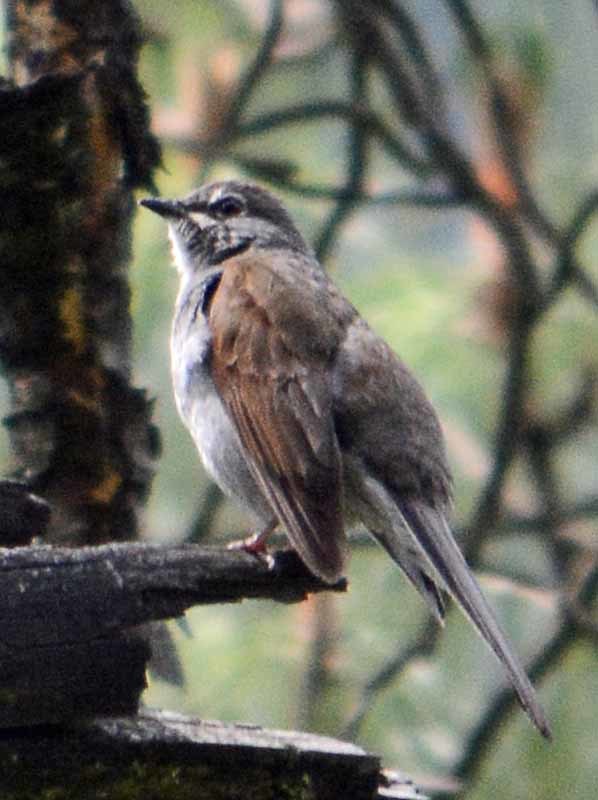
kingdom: Animalia
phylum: Chordata
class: Aves
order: Passeriformes
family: Turdidae
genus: Myadestes
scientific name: Myadestes occidentalis
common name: Brown-backed solitaire
